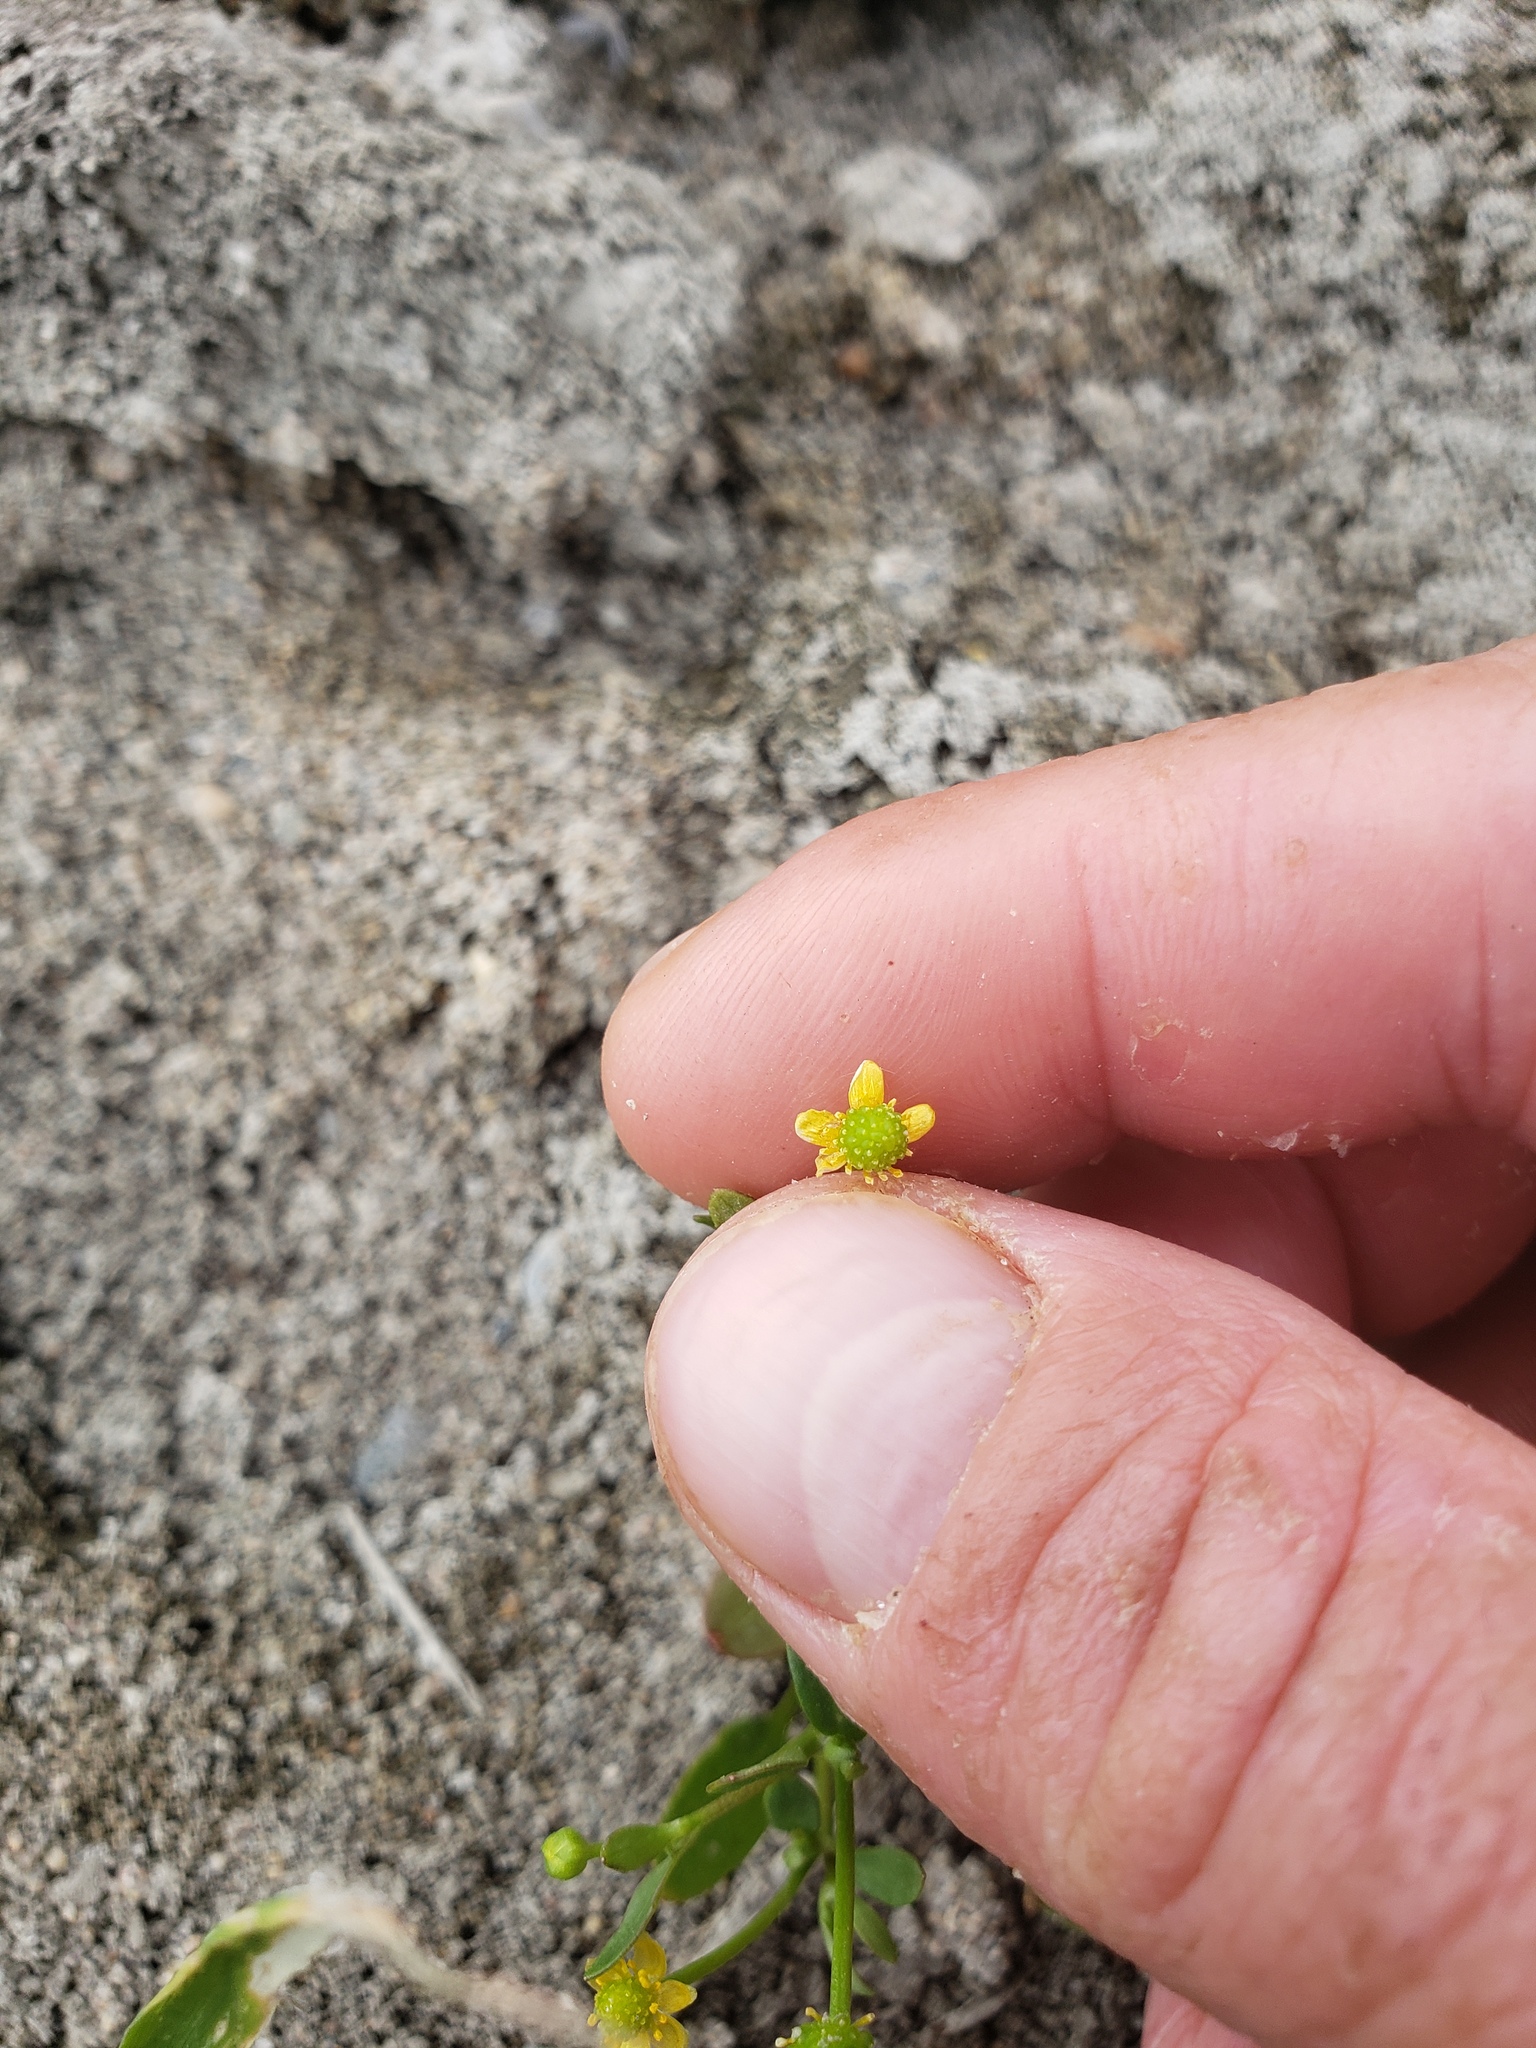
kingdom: Plantae
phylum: Tracheophyta
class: Magnoliopsida
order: Ranunculales
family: Ranunculaceae
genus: Ranunculus
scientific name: Ranunculus sceleratus
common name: Celery-leaved buttercup
